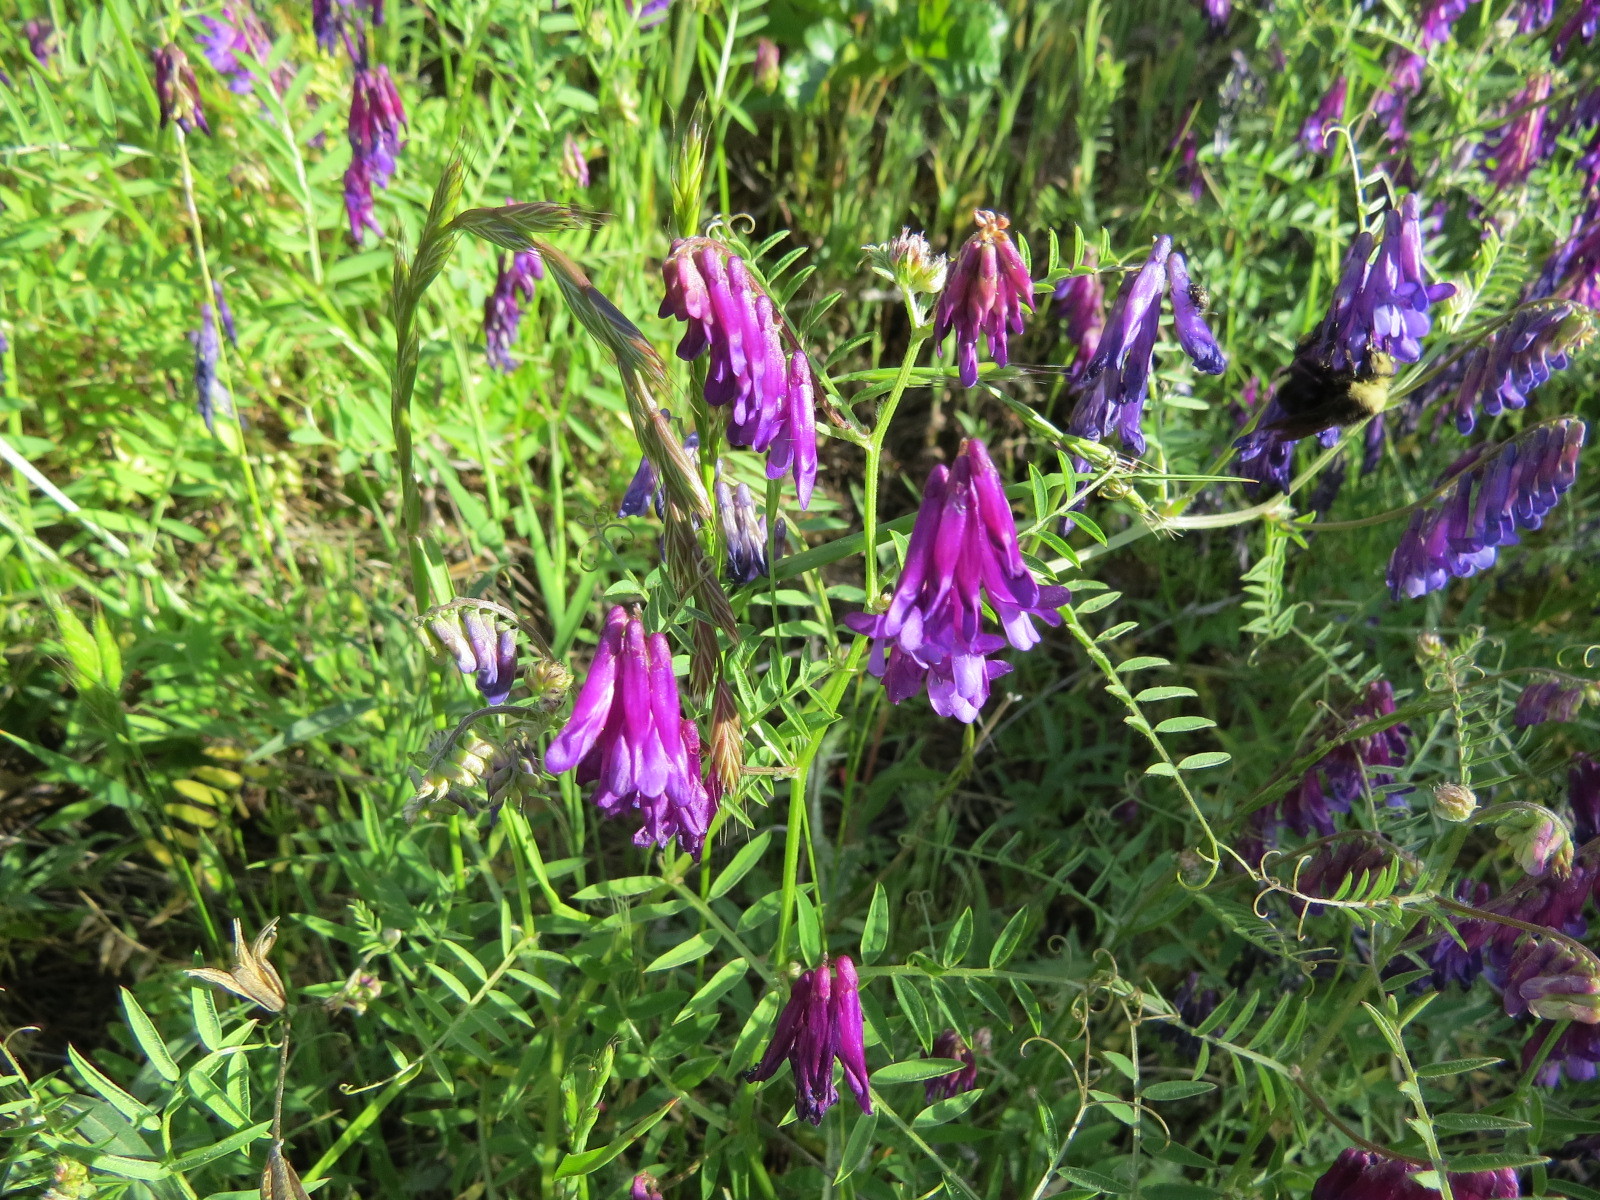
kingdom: Plantae
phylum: Tracheophyta
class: Magnoliopsida
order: Fabales
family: Fabaceae
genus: Vicia
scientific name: Vicia villosa
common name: Fodder vetch
